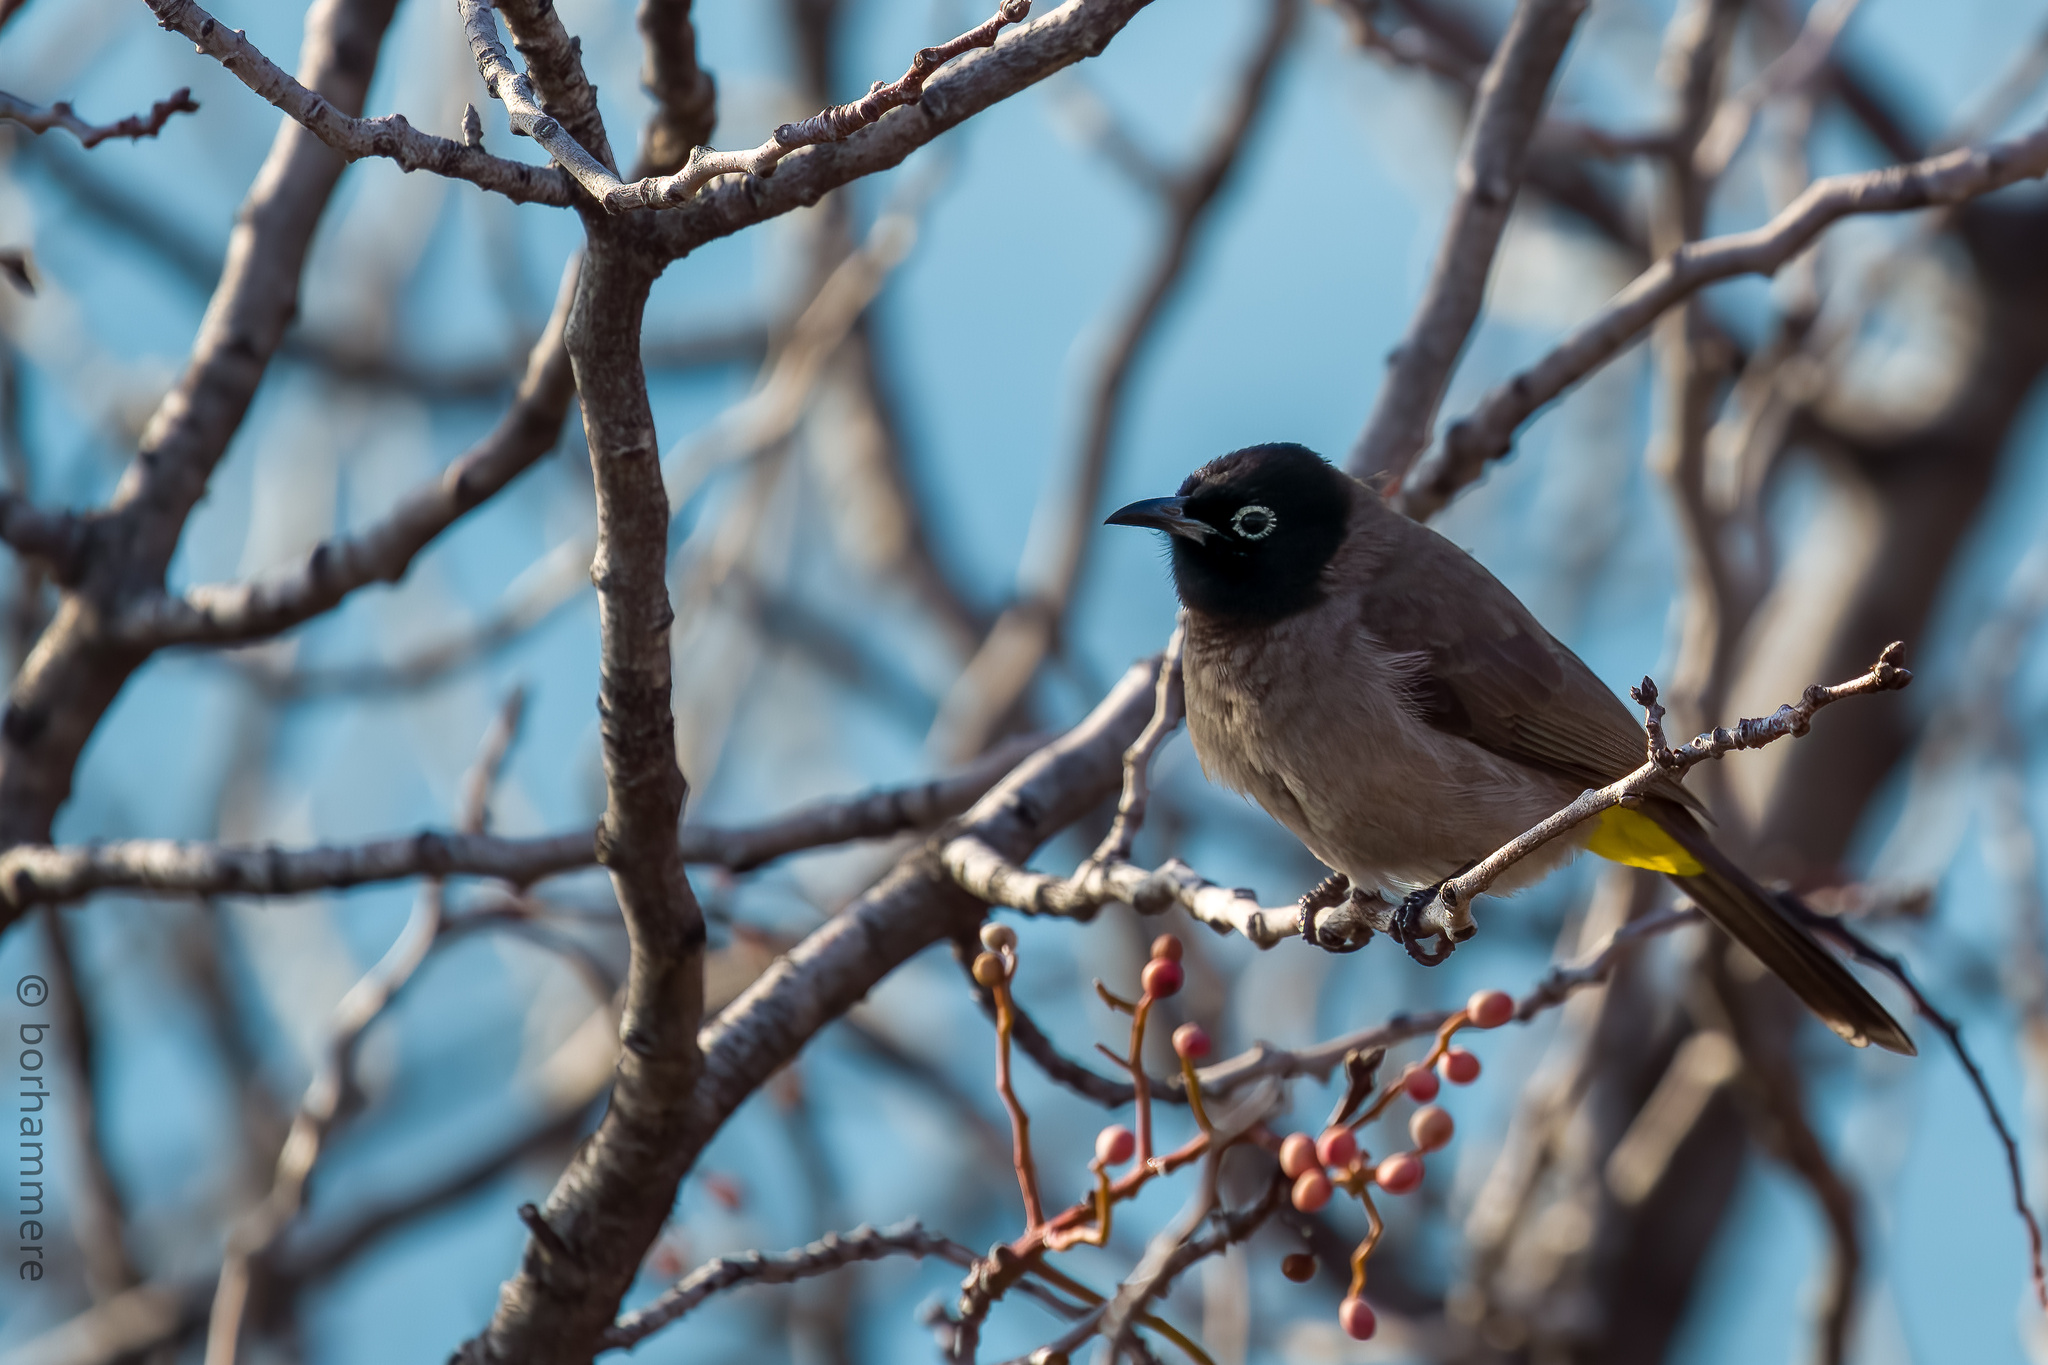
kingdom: Animalia
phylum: Chordata
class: Aves
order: Passeriformes
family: Pycnonotidae
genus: Pycnonotus
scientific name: Pycnonotus xanthopygos
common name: White-spectacled bulbul
